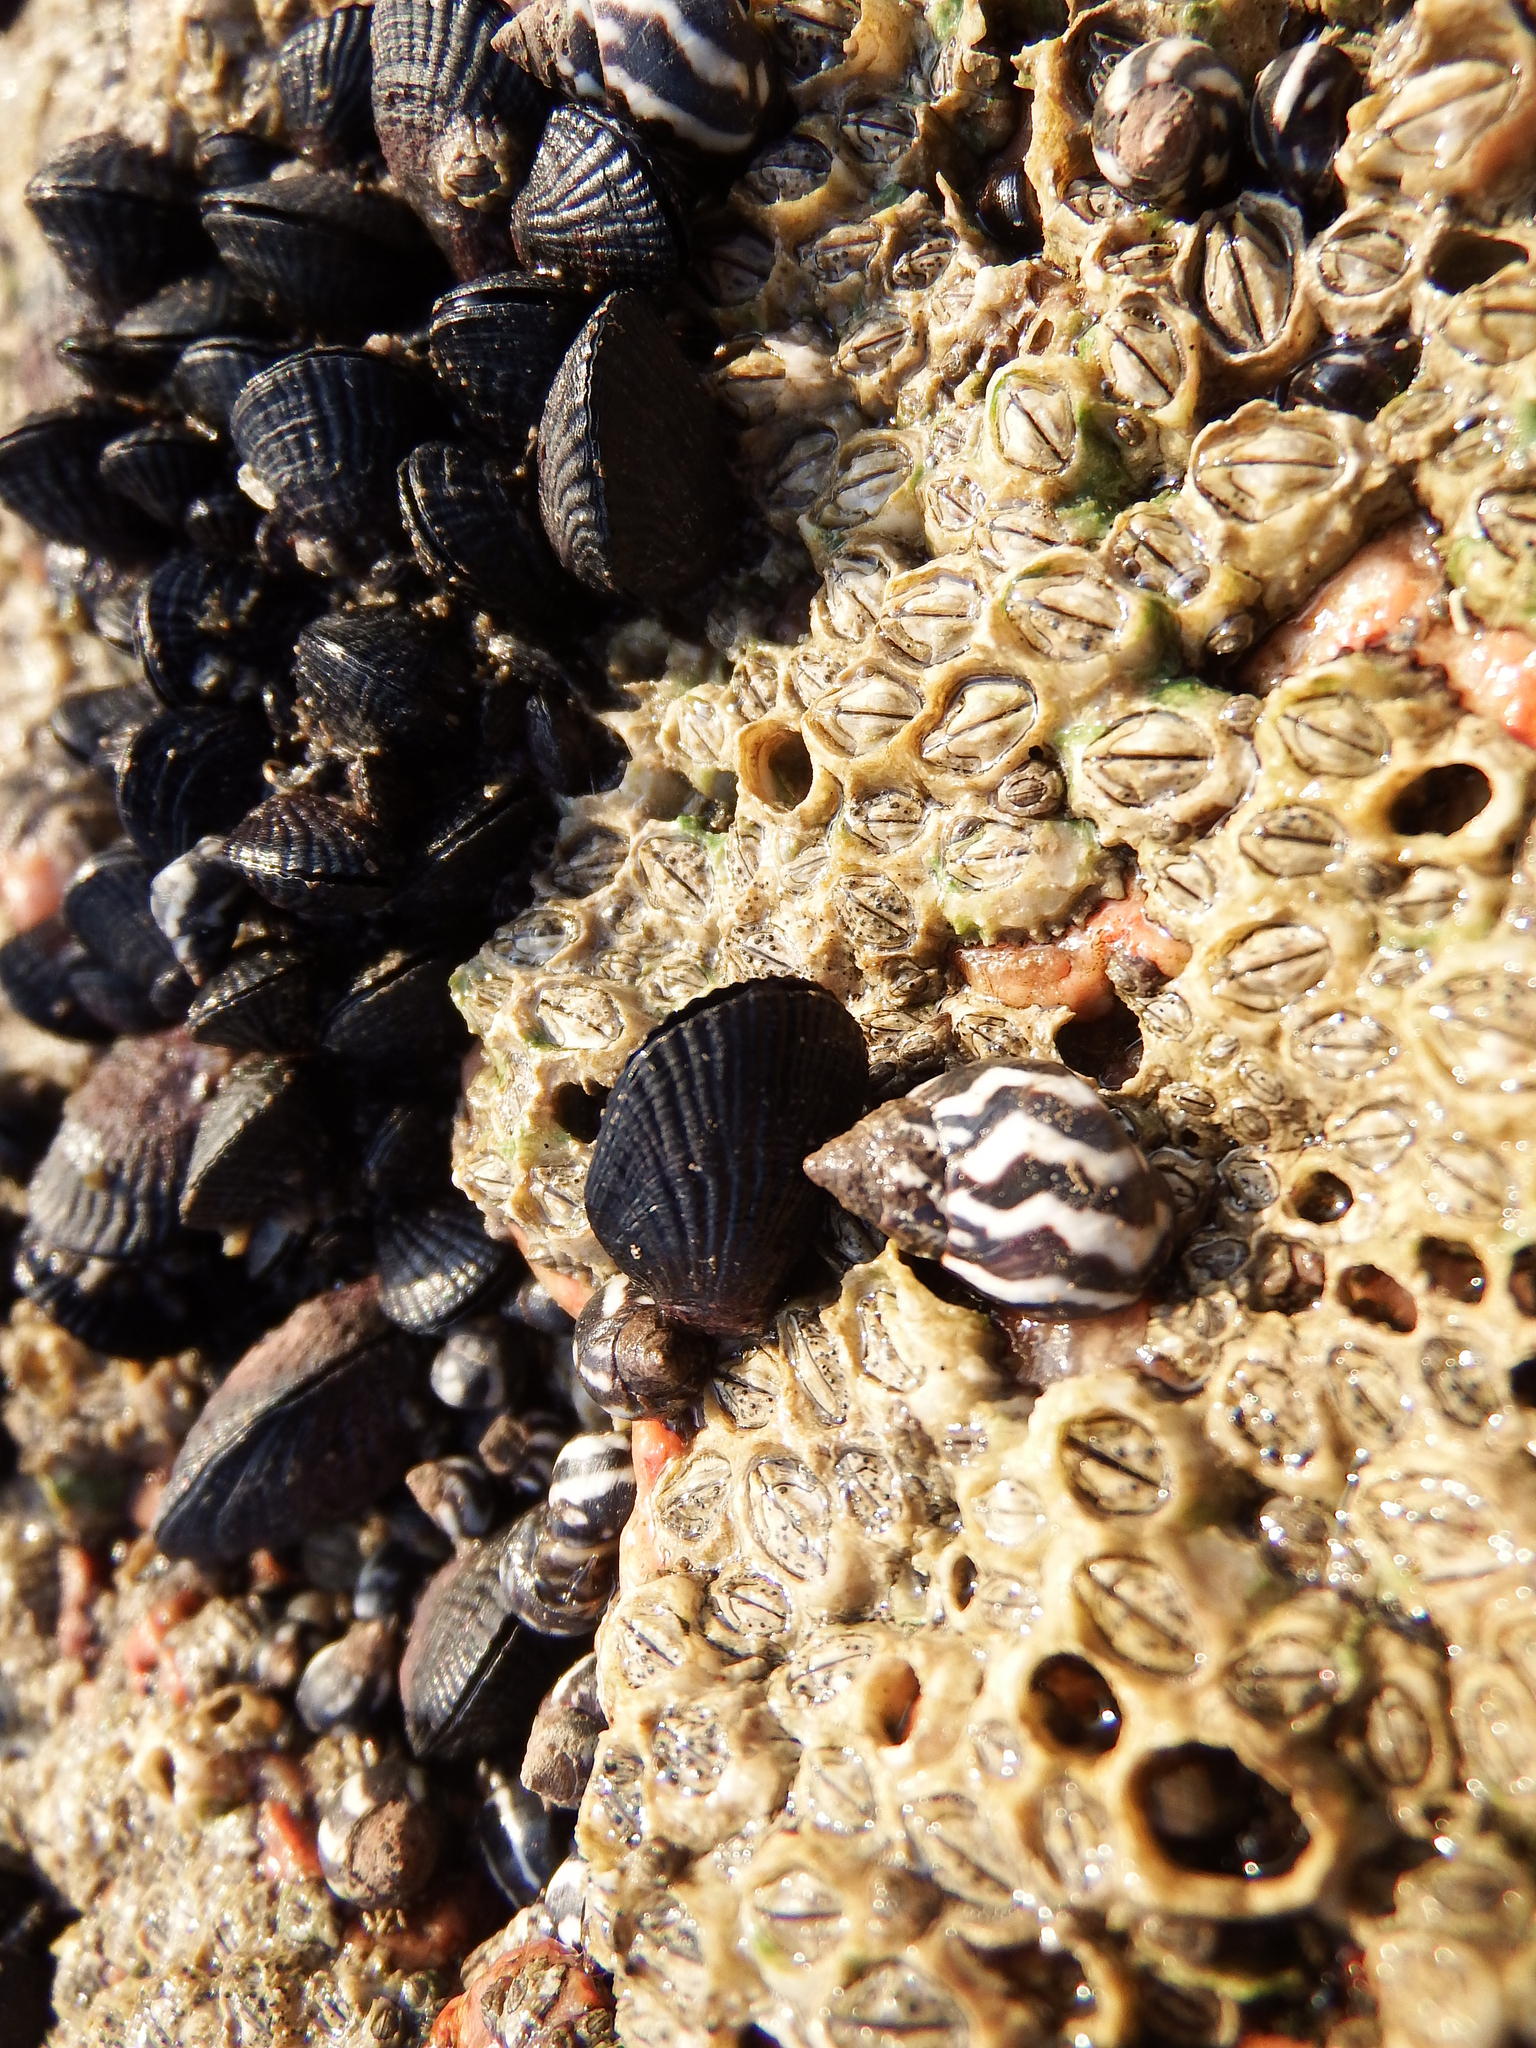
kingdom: Animalia
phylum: Mollusca
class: Gastropoda
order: Littorinimorpha
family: Littorinidae
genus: Echinolittorina
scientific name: Echinolittorina peruviana
